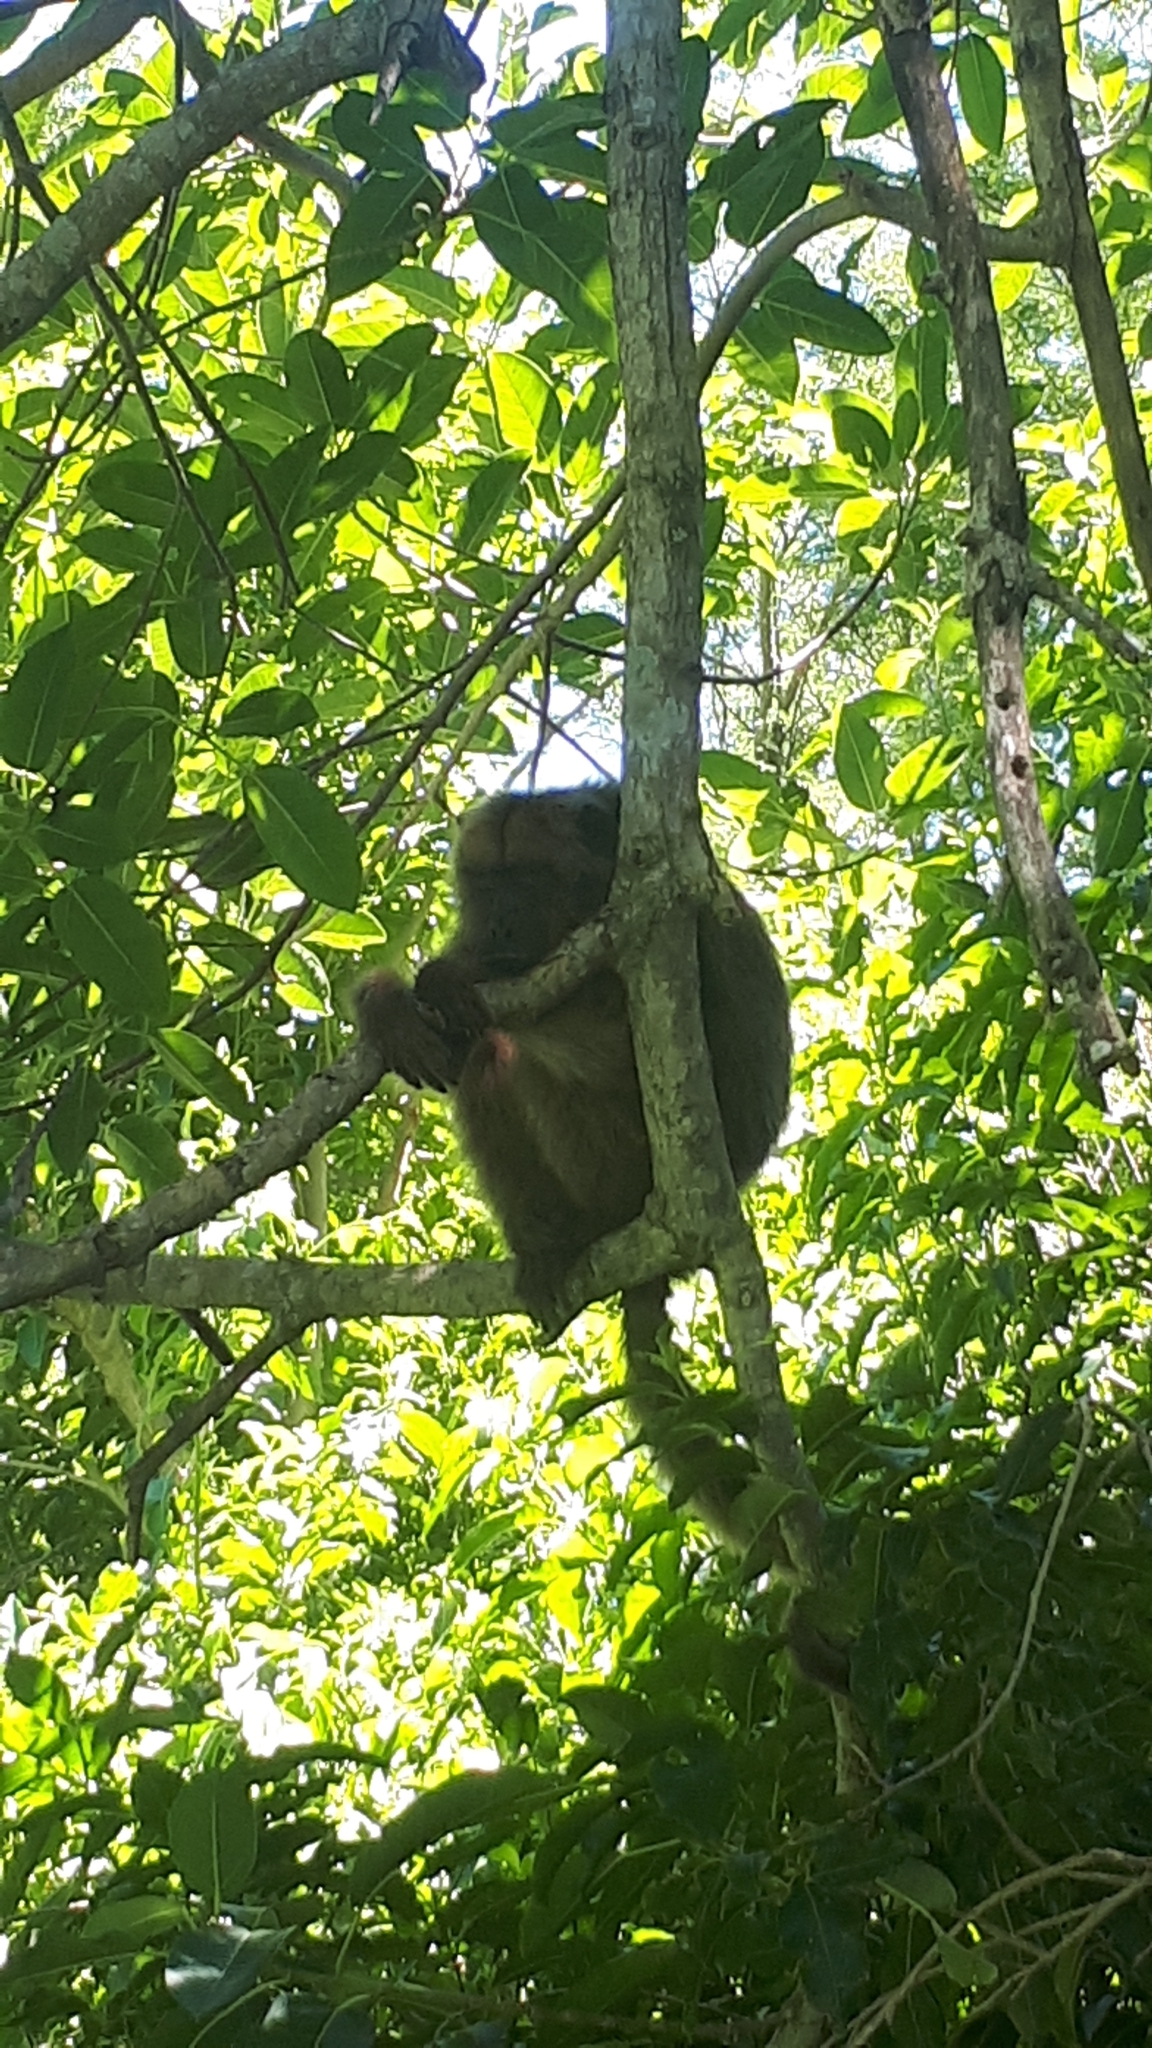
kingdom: Animalia
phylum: Chordata
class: Mammalia
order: Primates
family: Atelidae
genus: Alouatta
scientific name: Alouatta caraya
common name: Black howler
